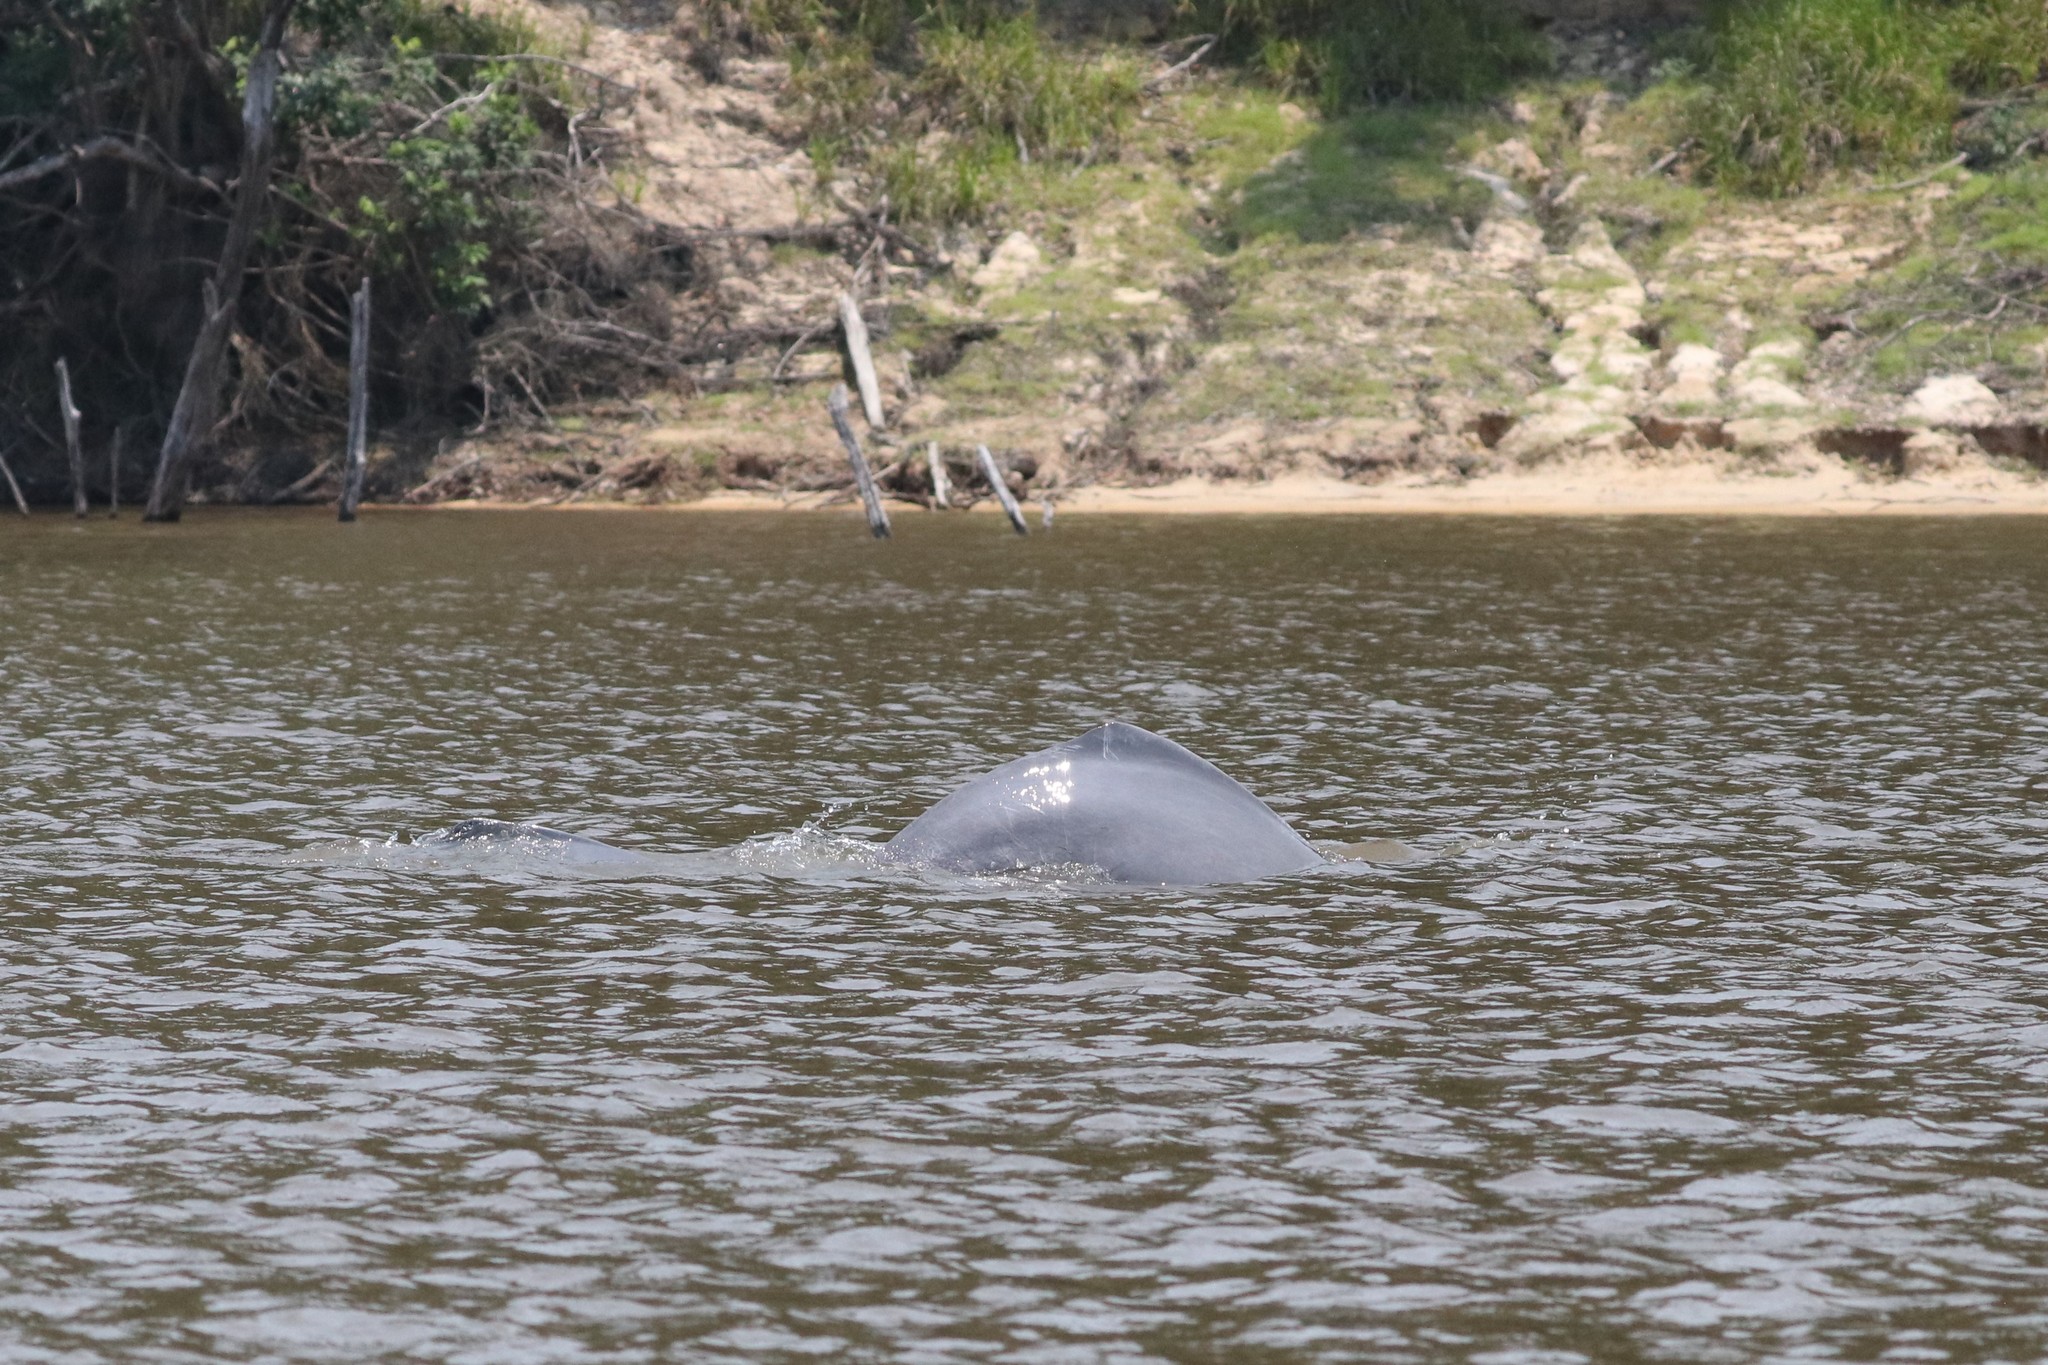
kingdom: Animalia
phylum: Chordata
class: Mammalia
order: Cetacea
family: Iniidae
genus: Inia
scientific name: Inia geoffrensis
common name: Amazon river dolphin
